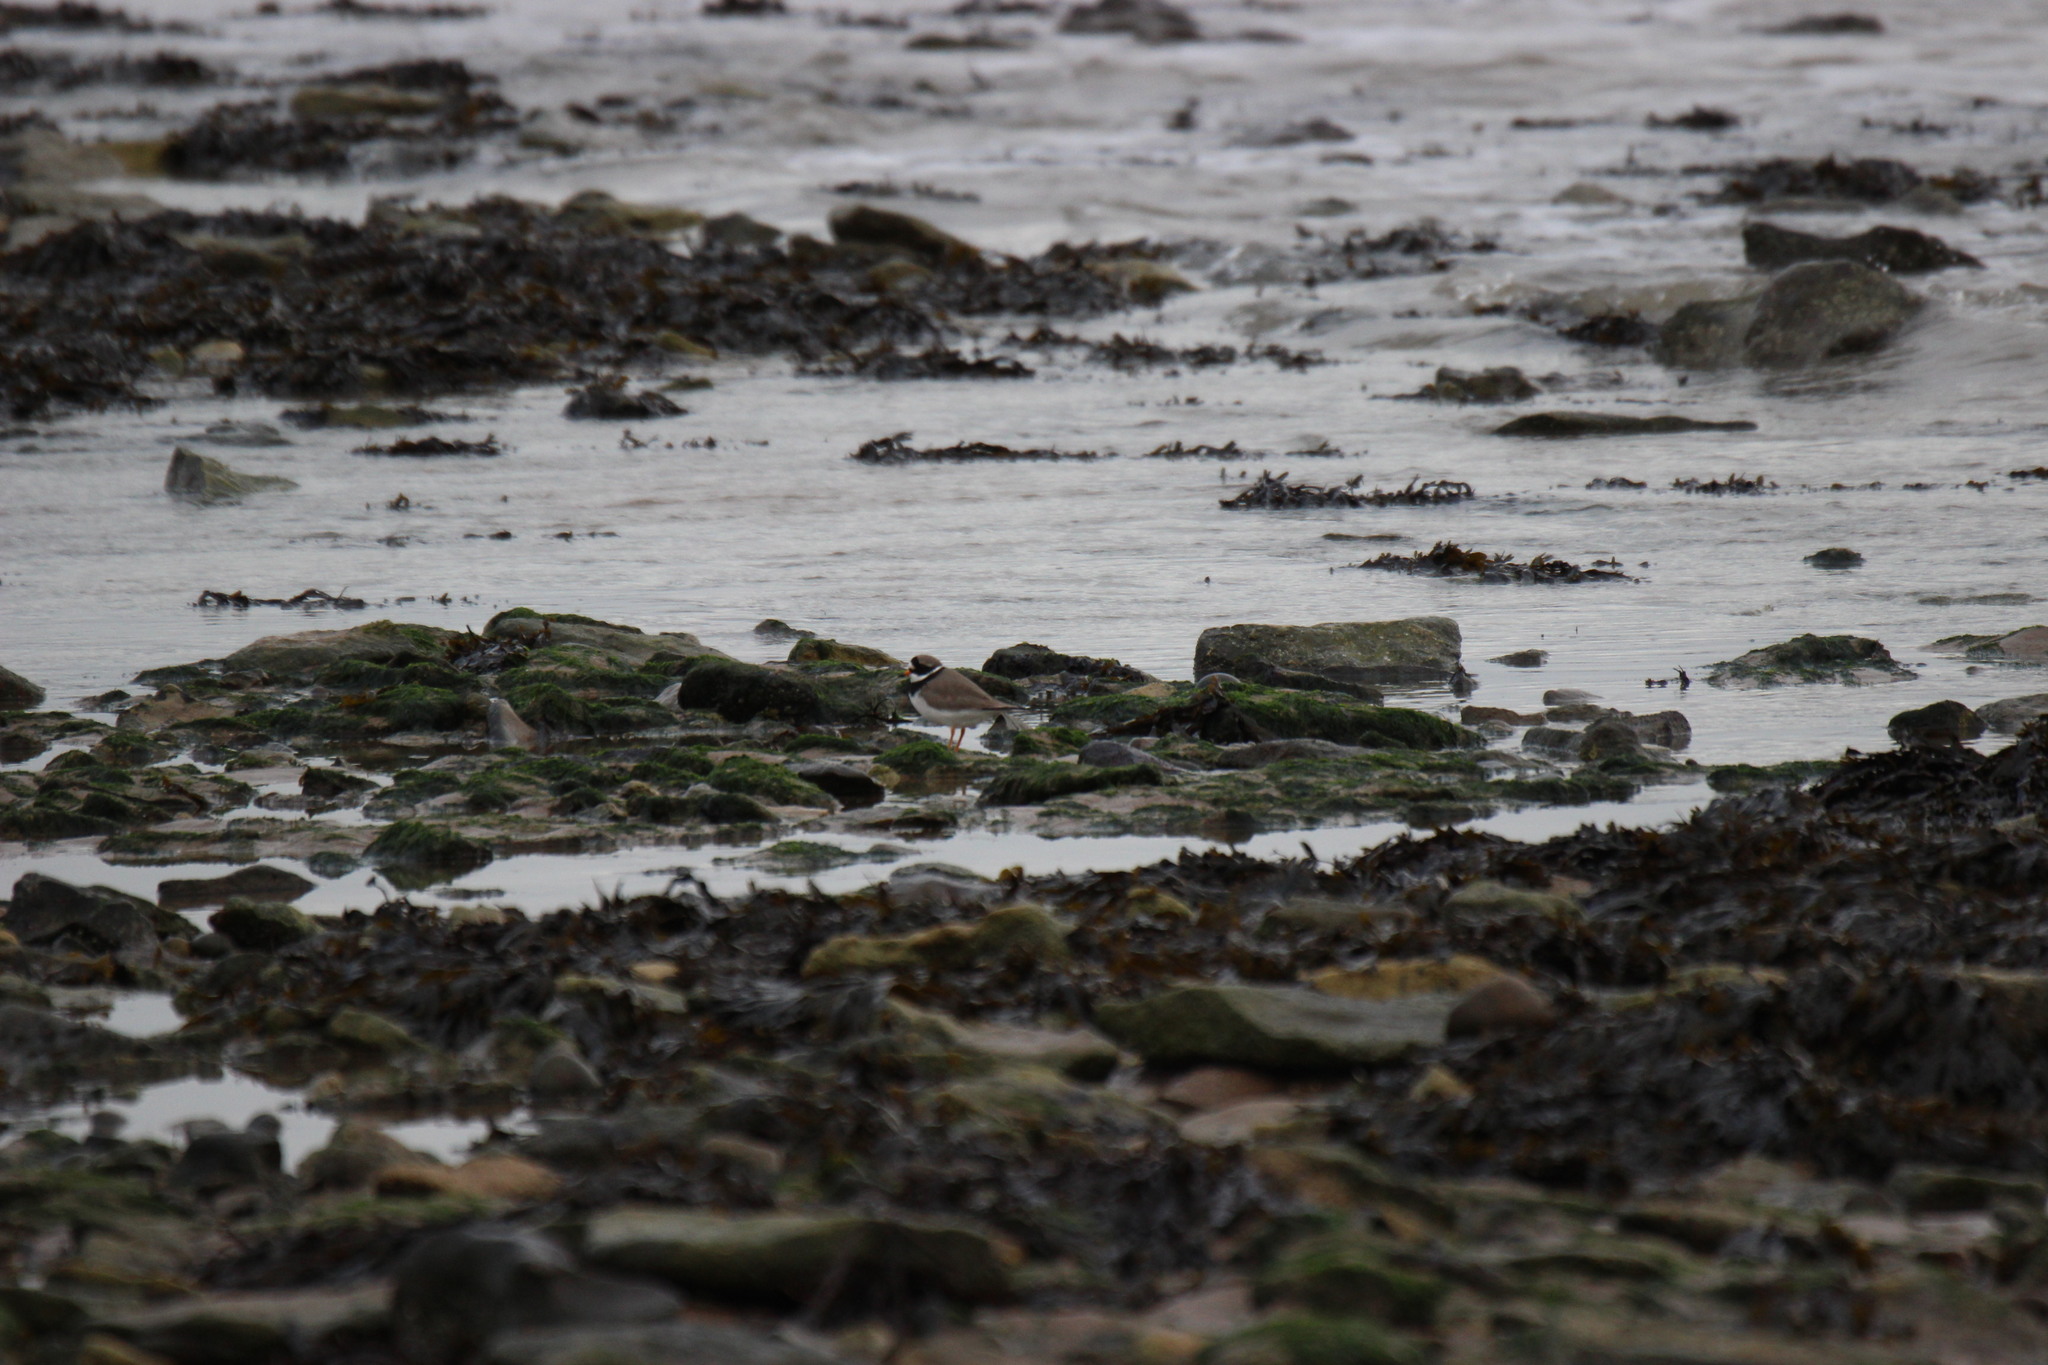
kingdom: Animalia
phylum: Chordata
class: Aves
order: Charadriiformes
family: Charadriidae
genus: Charadrius
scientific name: Charadrius hiaticula
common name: Common ringed plover
